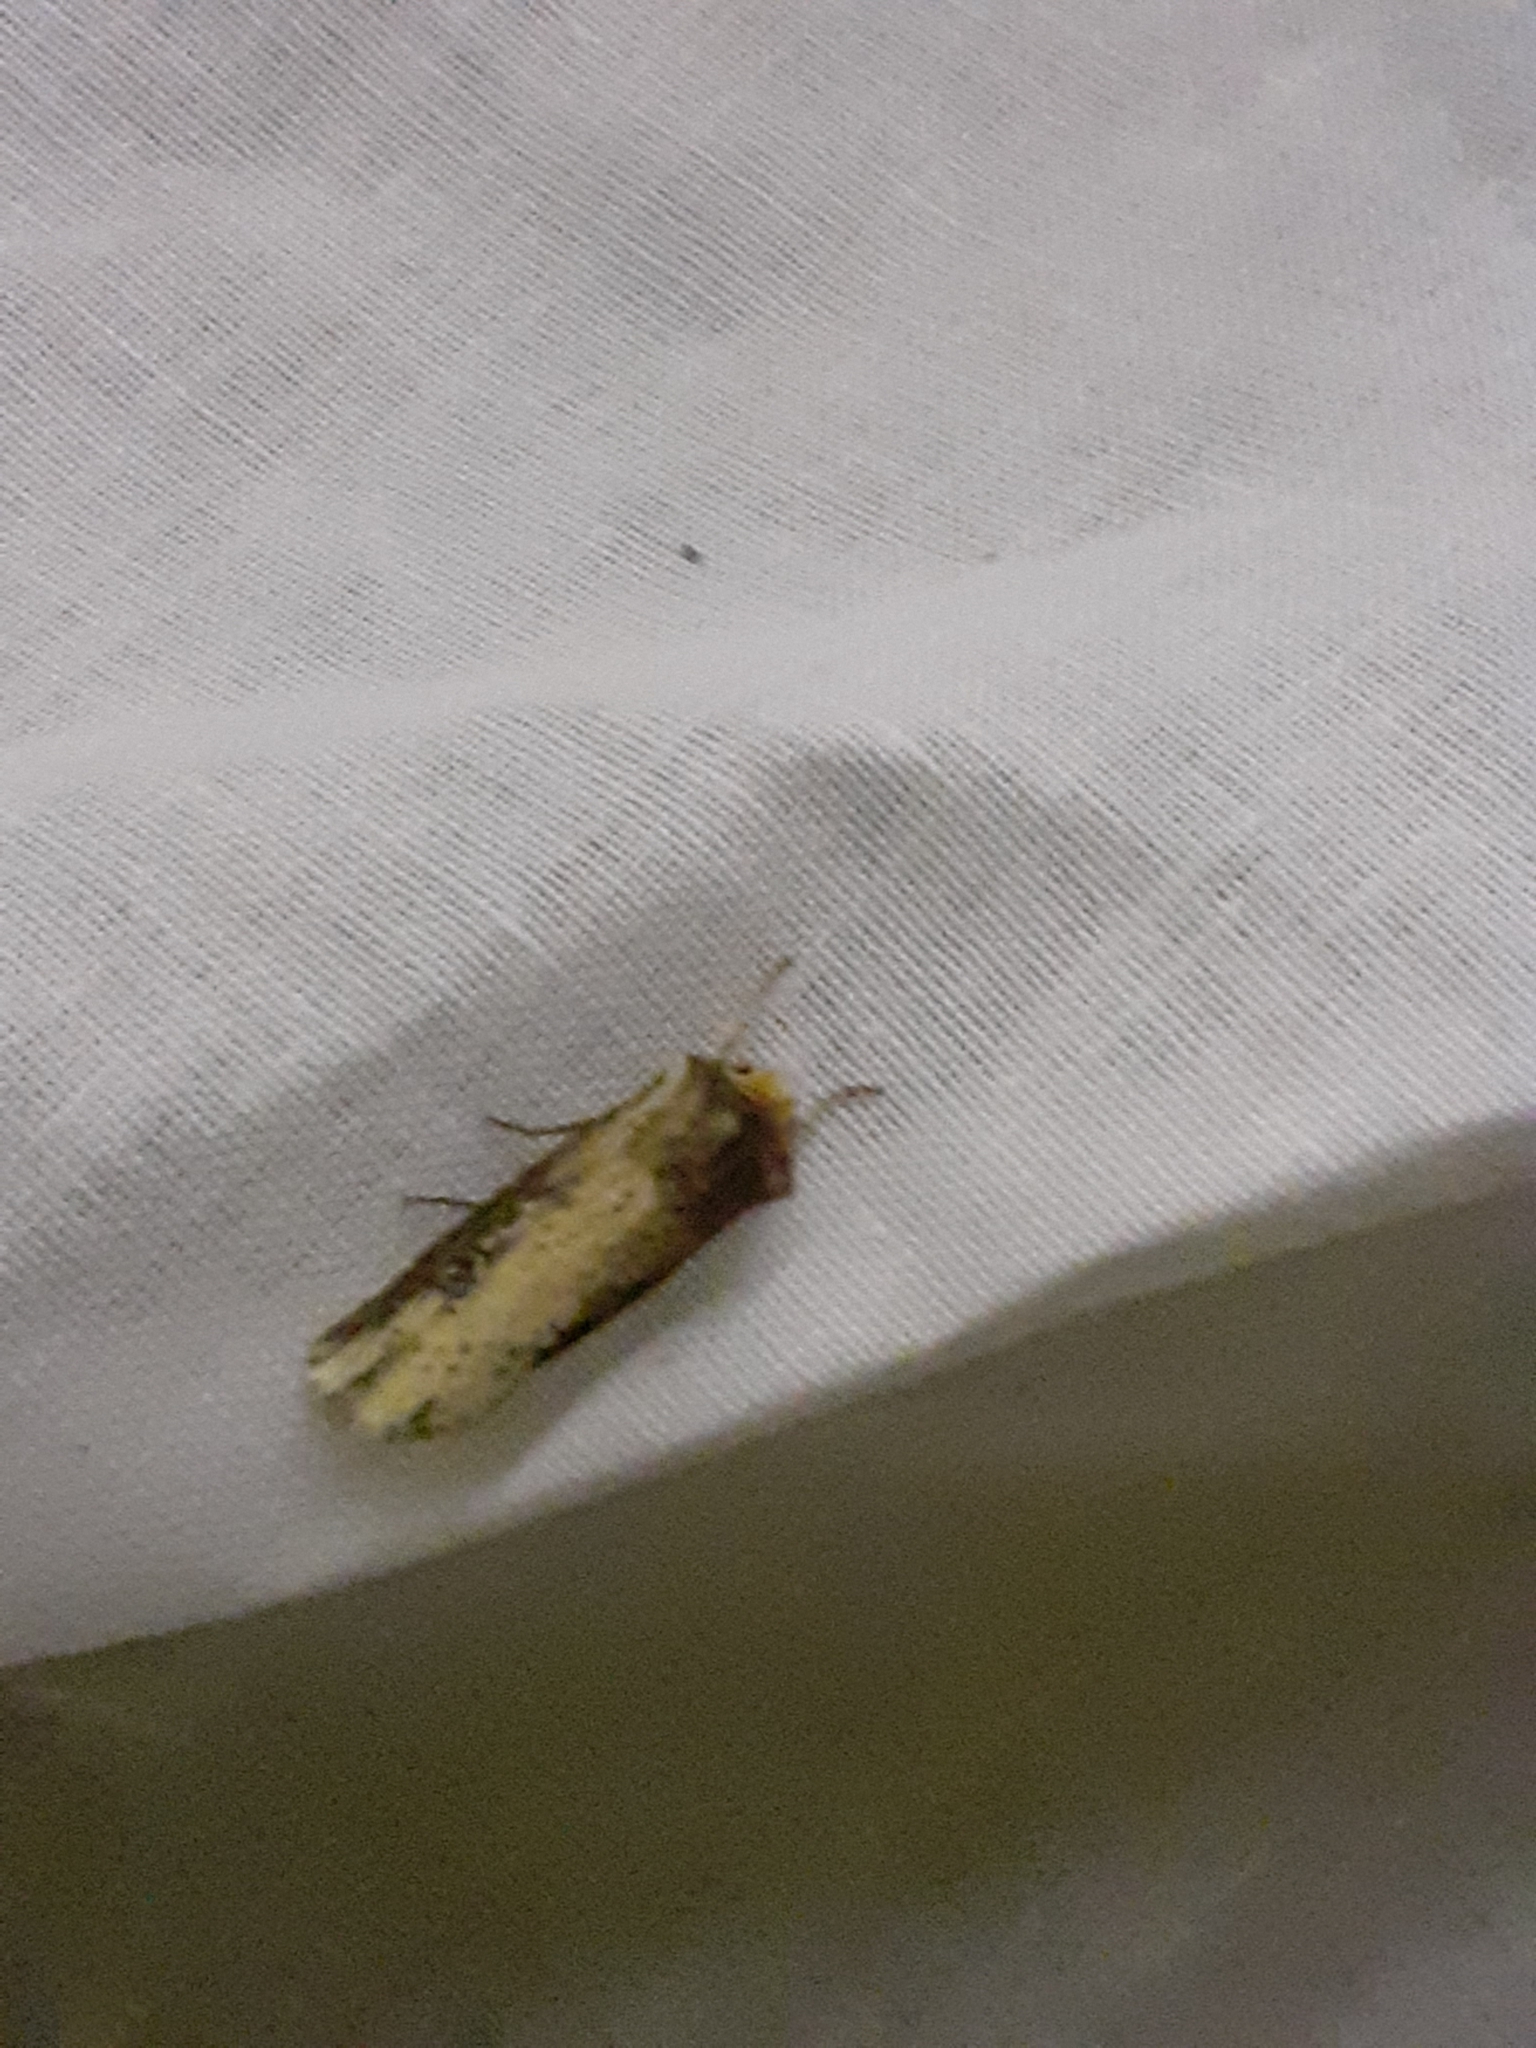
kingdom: Animalia
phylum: Arthropoda
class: Insecta
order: Lepidoptera
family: Noctuidae
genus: Axylia
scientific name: Axylia putris
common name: Flame
